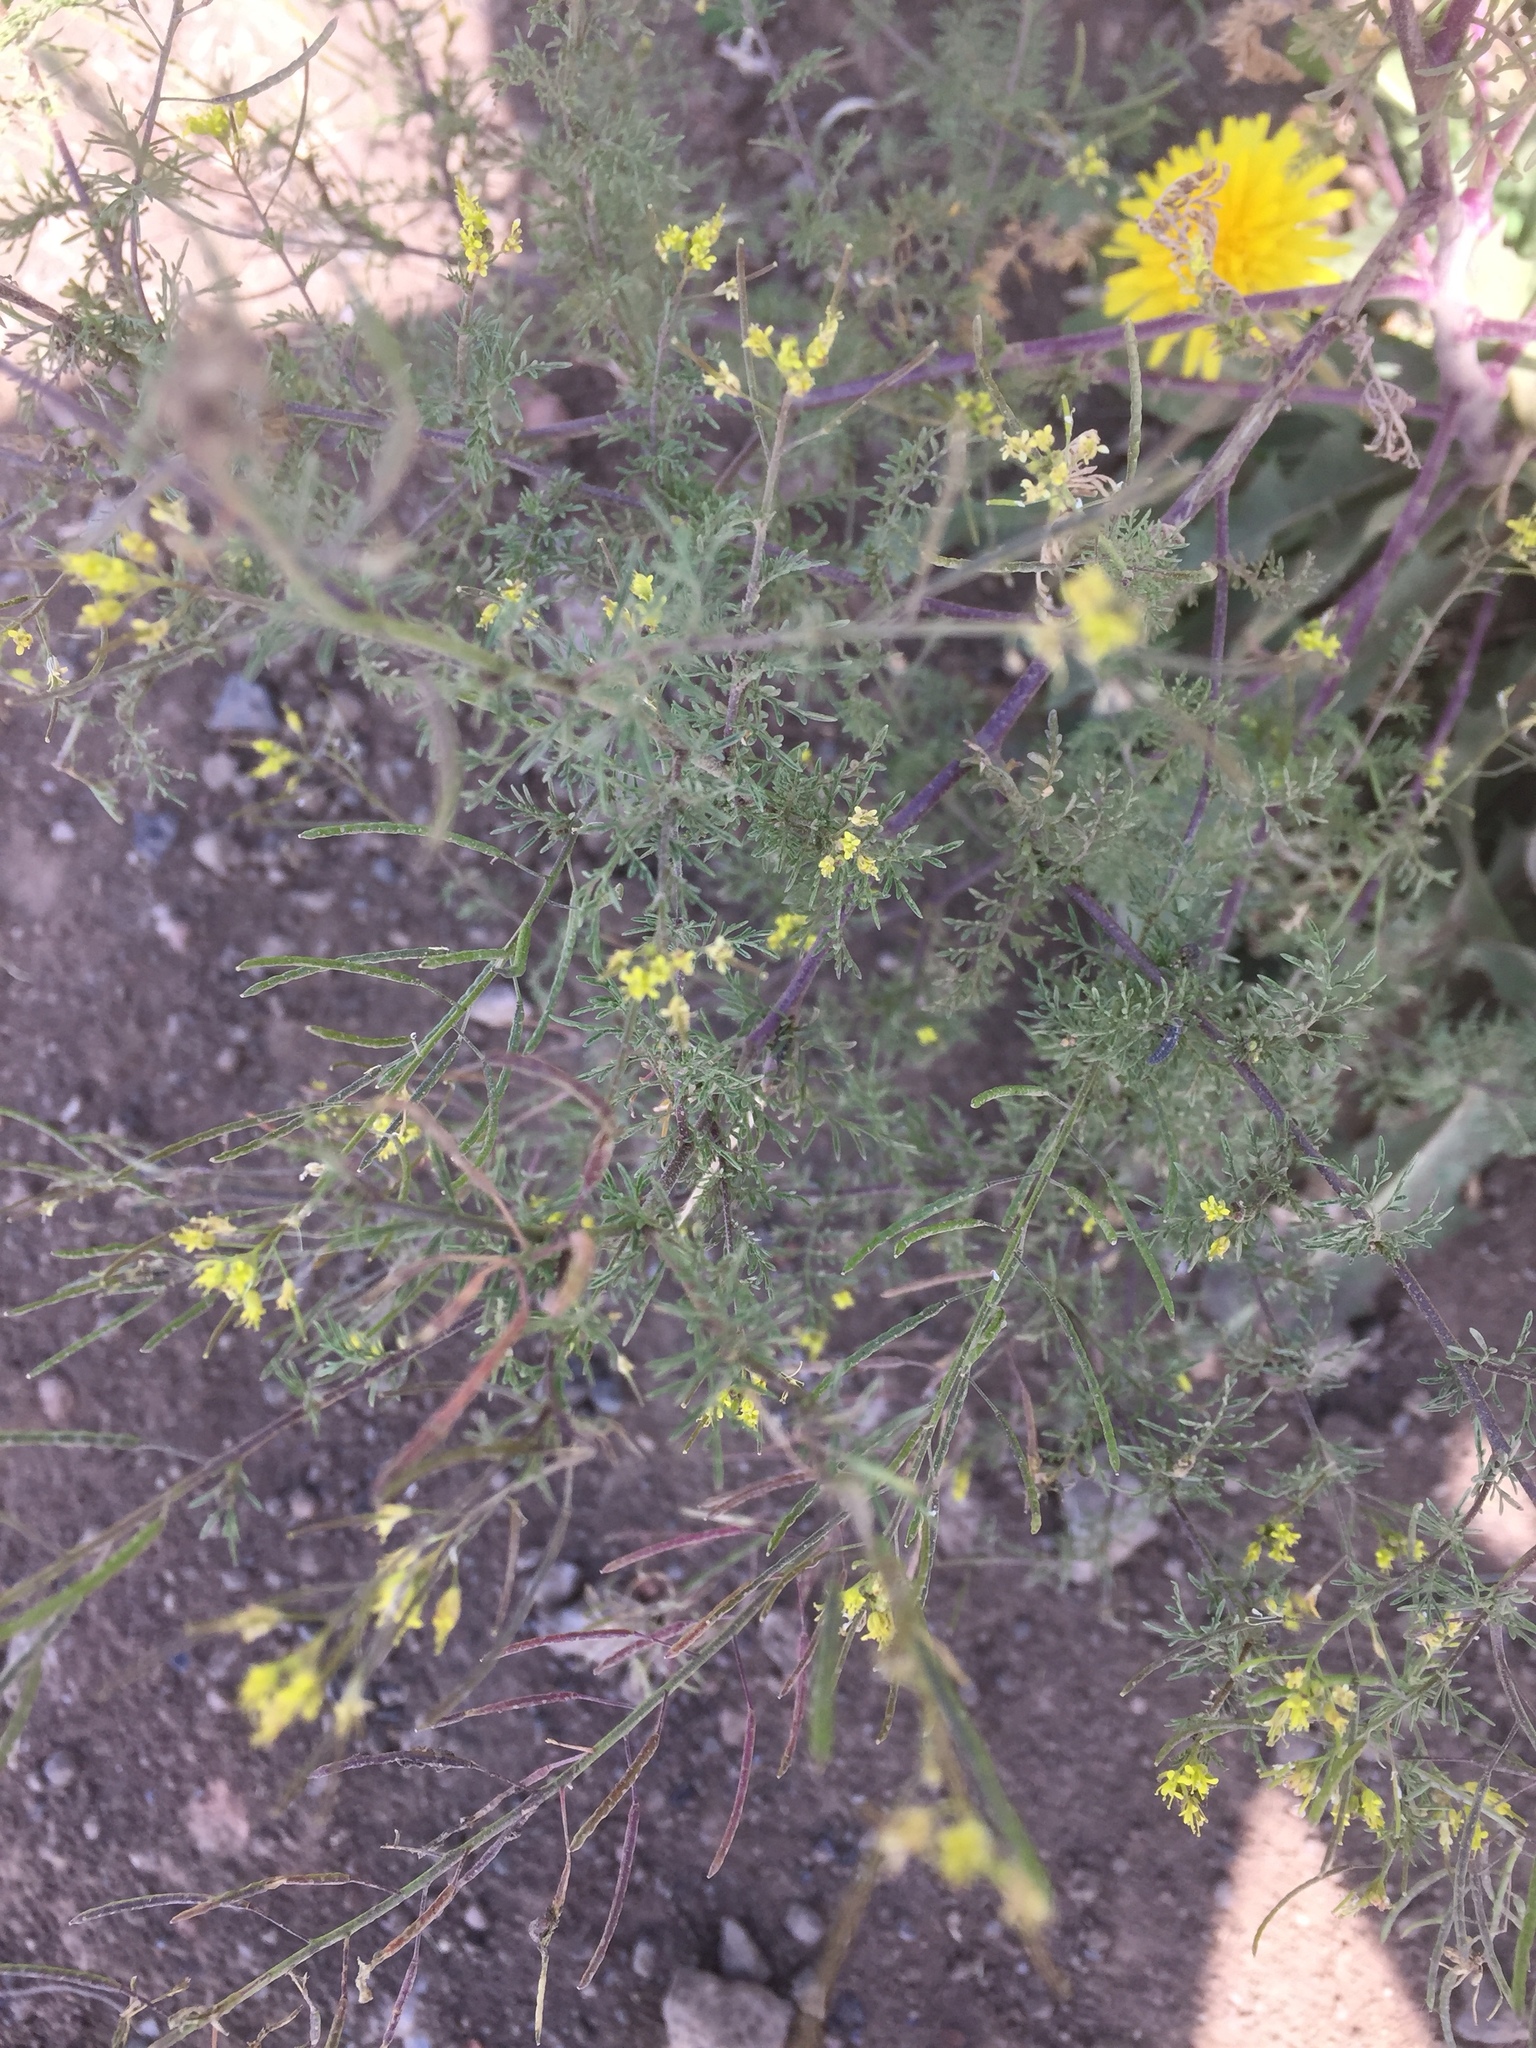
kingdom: Plantae
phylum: Tracheophyta
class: Magnoliopsida
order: Brassicales
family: Brassicaceae
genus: Descurainia
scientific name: Descurainia sophia
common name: Flixweed
